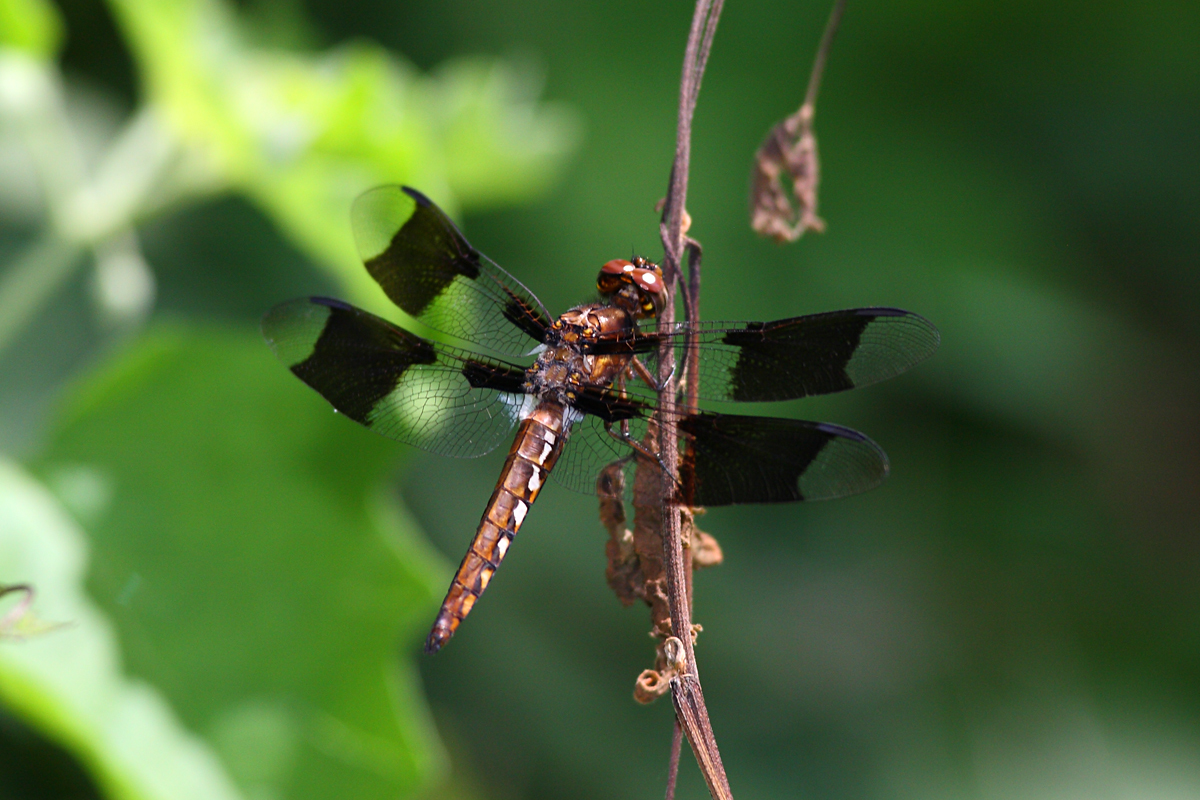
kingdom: Animalia
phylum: Arthropoda
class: Insecta
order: Odonata
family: Libellulidae
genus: Plathemis
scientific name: Plathemis lydia
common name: Common whitetail
